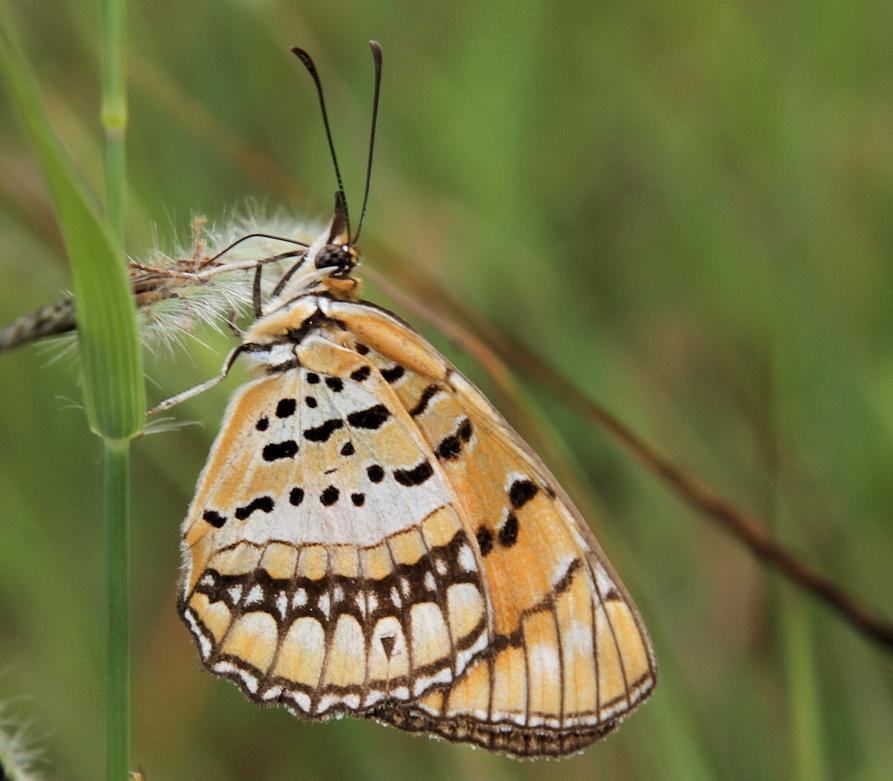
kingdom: Animalia
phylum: Arthropoda
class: Insecta
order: Lepidoptera
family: Nymphalidae
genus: Byblia
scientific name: Byblia ilithyia
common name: Spotted joker
